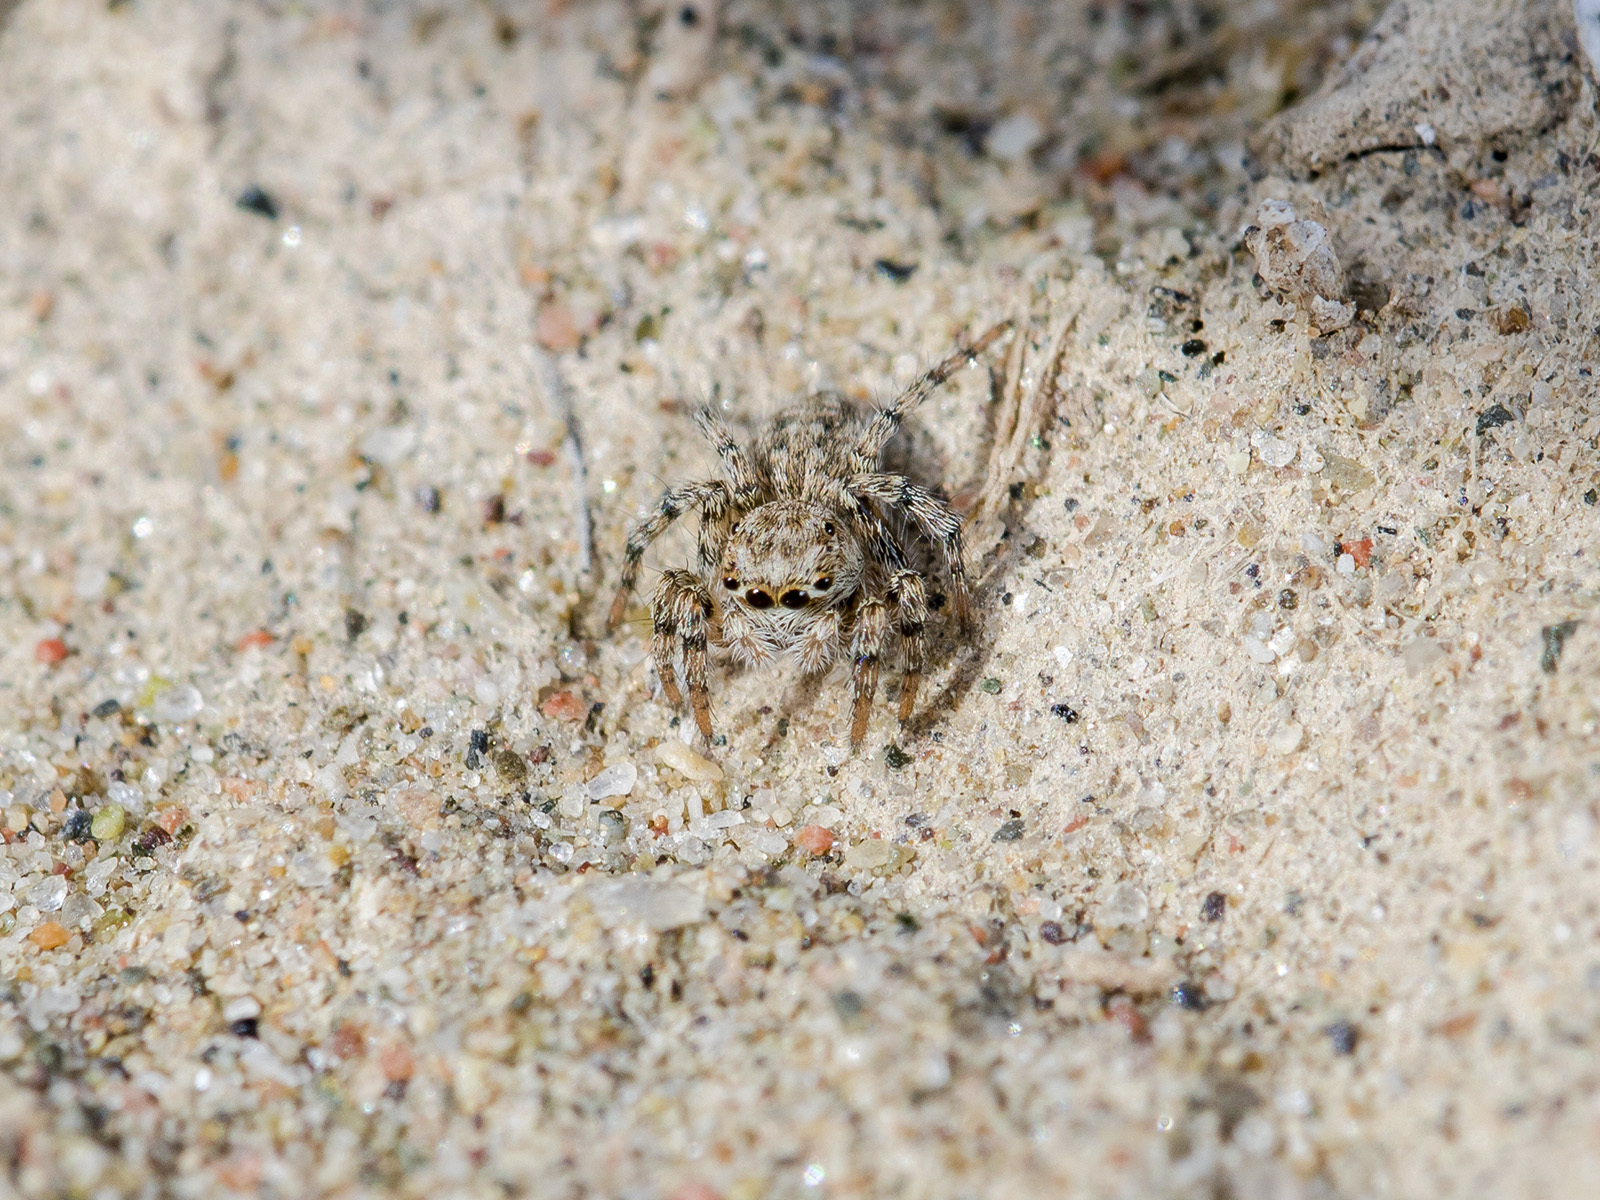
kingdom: Animalia
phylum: Arthropoda
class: Arachnida
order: Araneae
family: Salticidae
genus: Aelurillus
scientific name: Aelurillus dubatolovi
